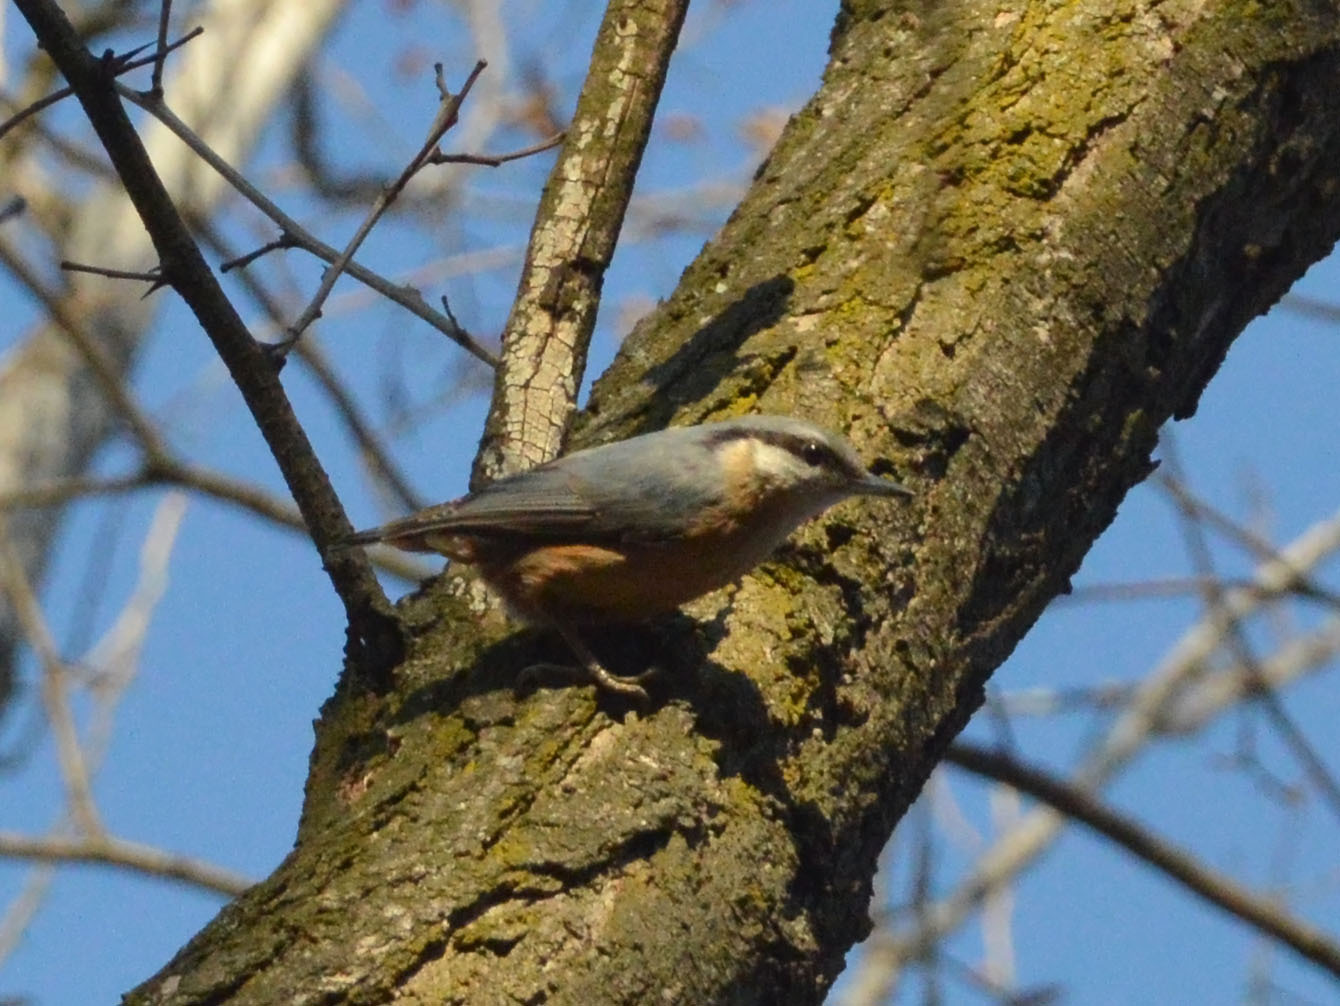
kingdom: Animalia
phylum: Chordata
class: Aves
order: Passeriformes
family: Sittidae
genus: Sitta
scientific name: Sitta europaea
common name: Eurasian nuthatch
